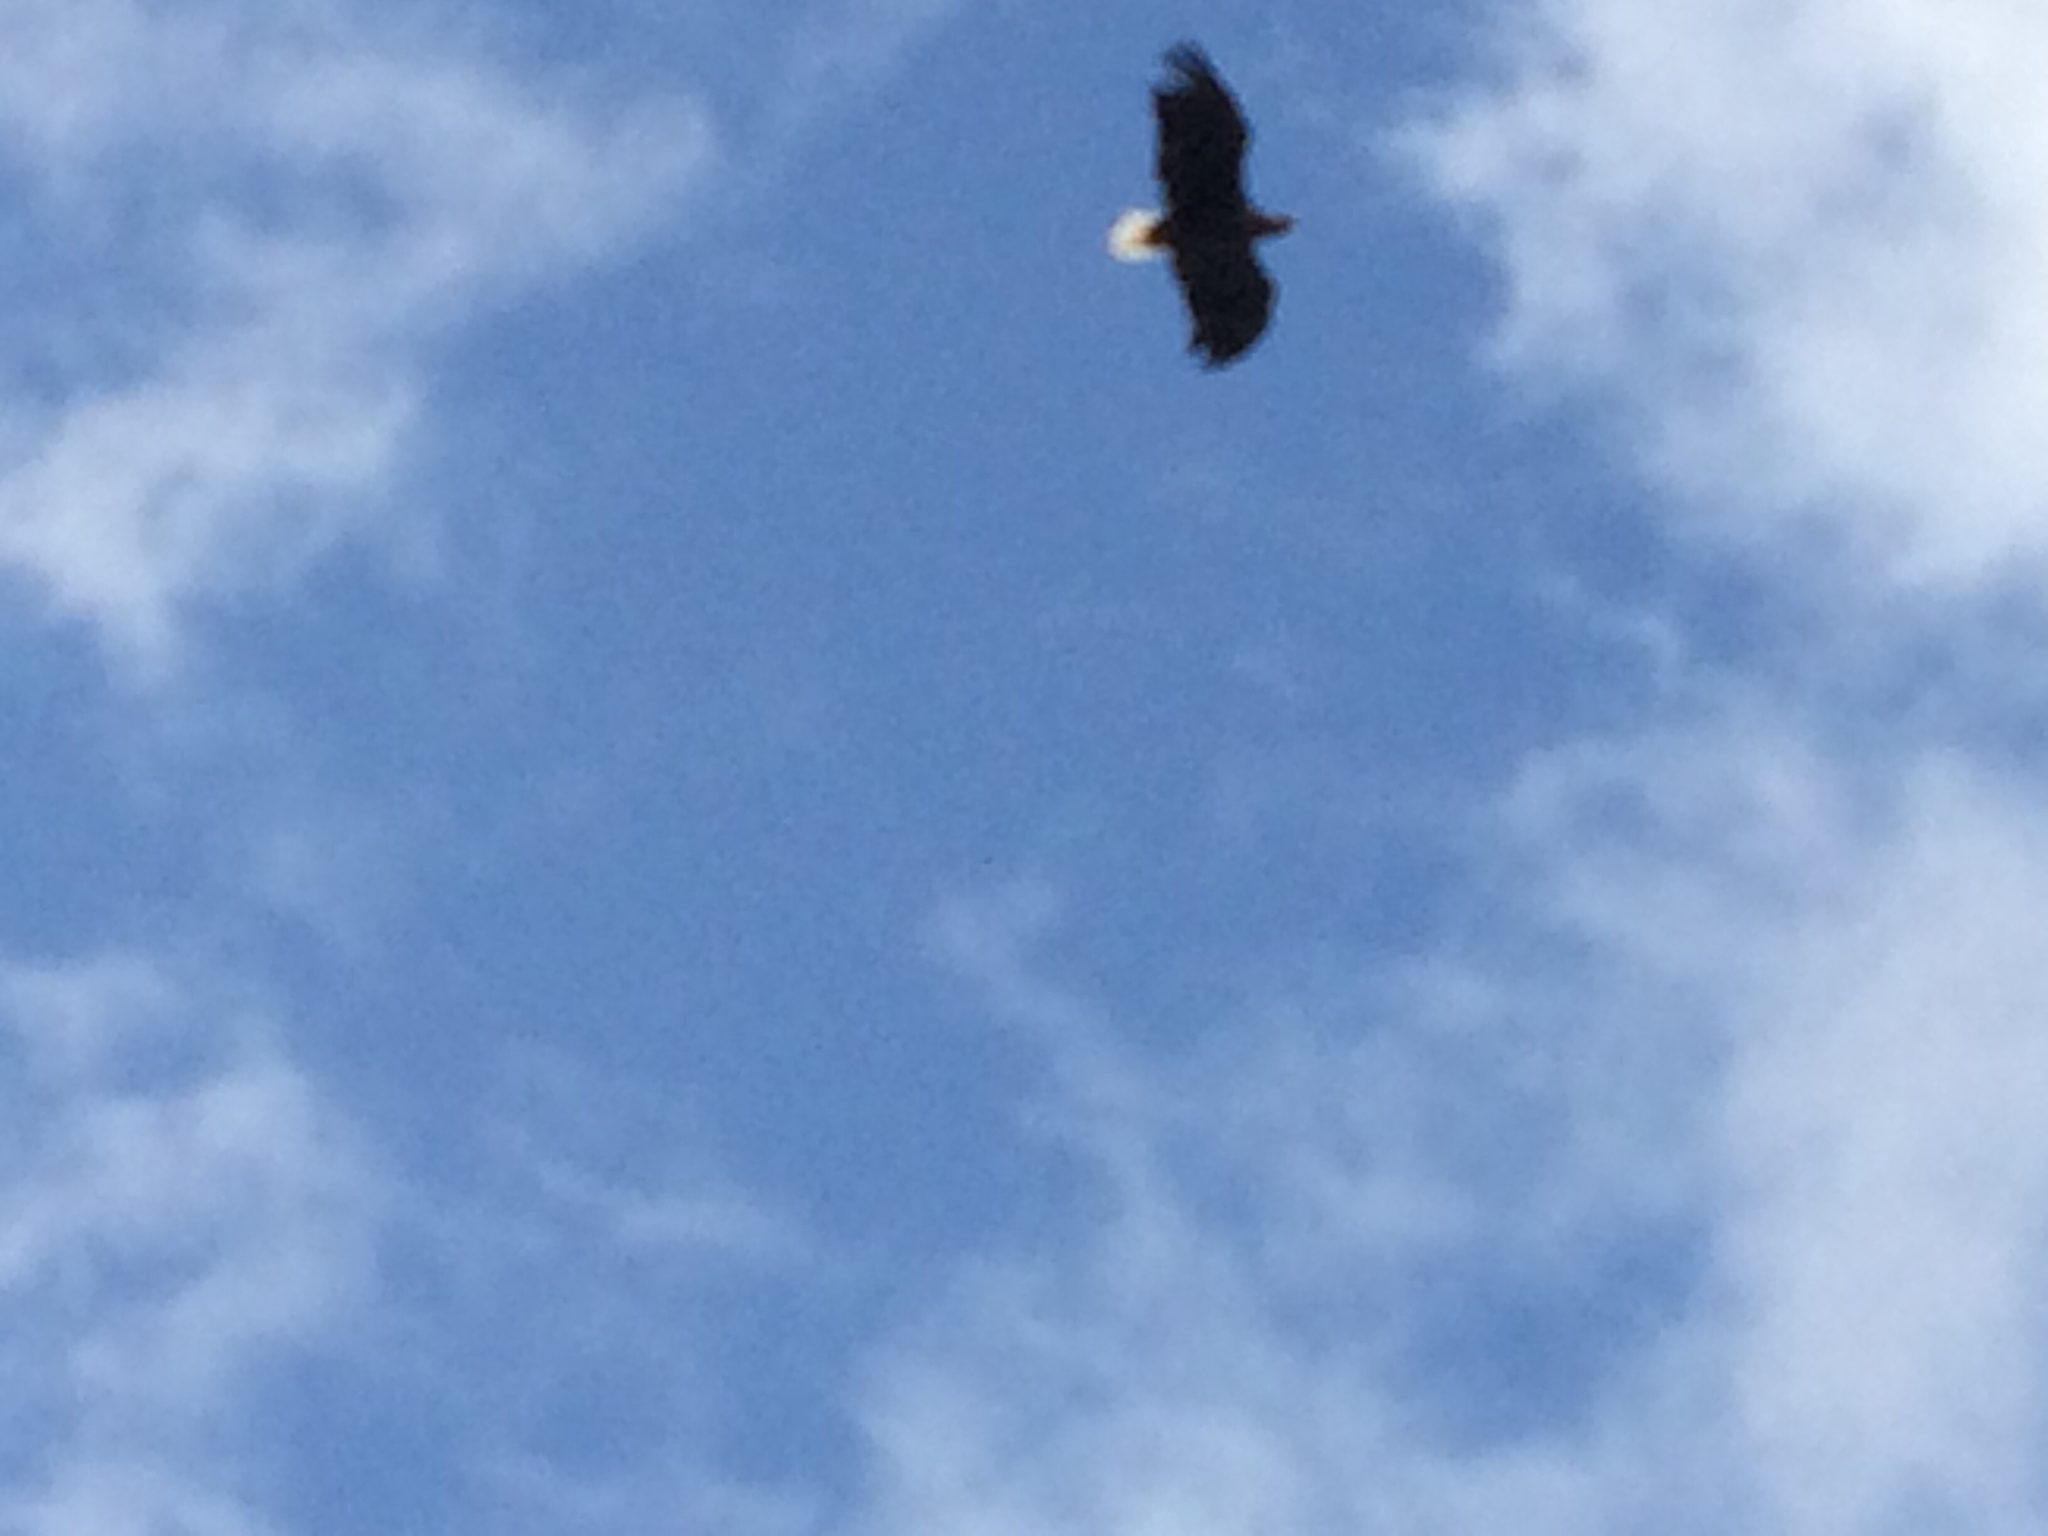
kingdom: Animalia
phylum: Chordata
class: Aves
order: Accipitriformes
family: Accipitridae
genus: Haliaeetus
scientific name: Haliaeetus albicilla
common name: White-tailed eagle
